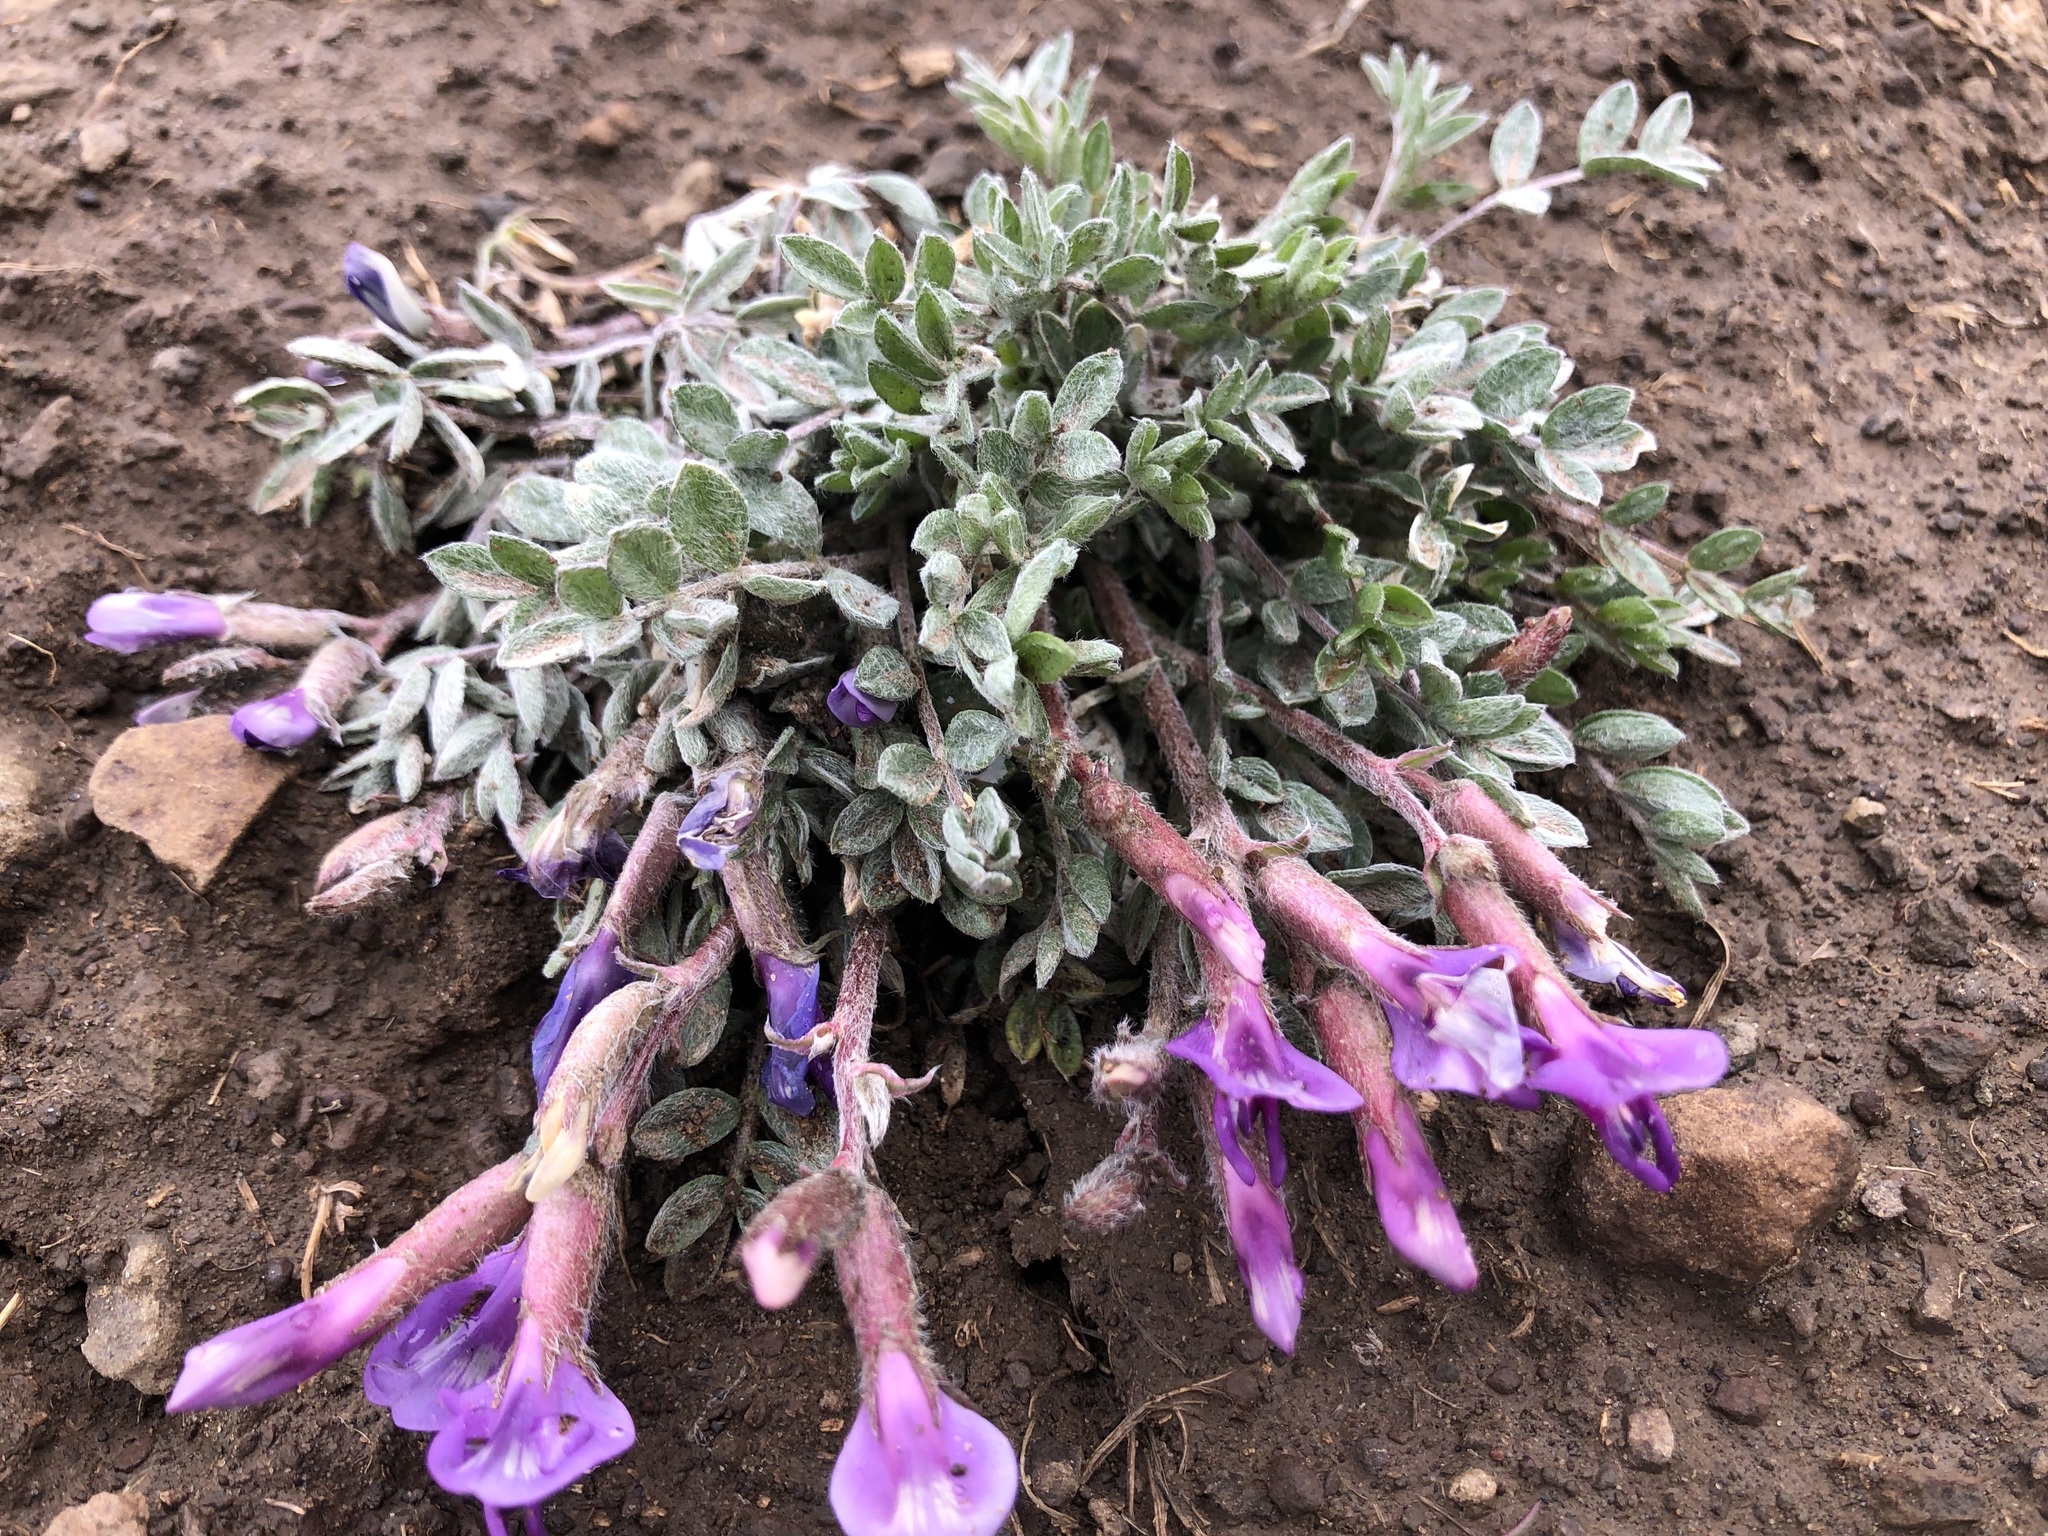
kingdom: Plantae
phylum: Tracheophyta
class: Magnoliopsida
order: Fabales
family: Fabaceae
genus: Astragalus
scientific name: Astragalus purshii
